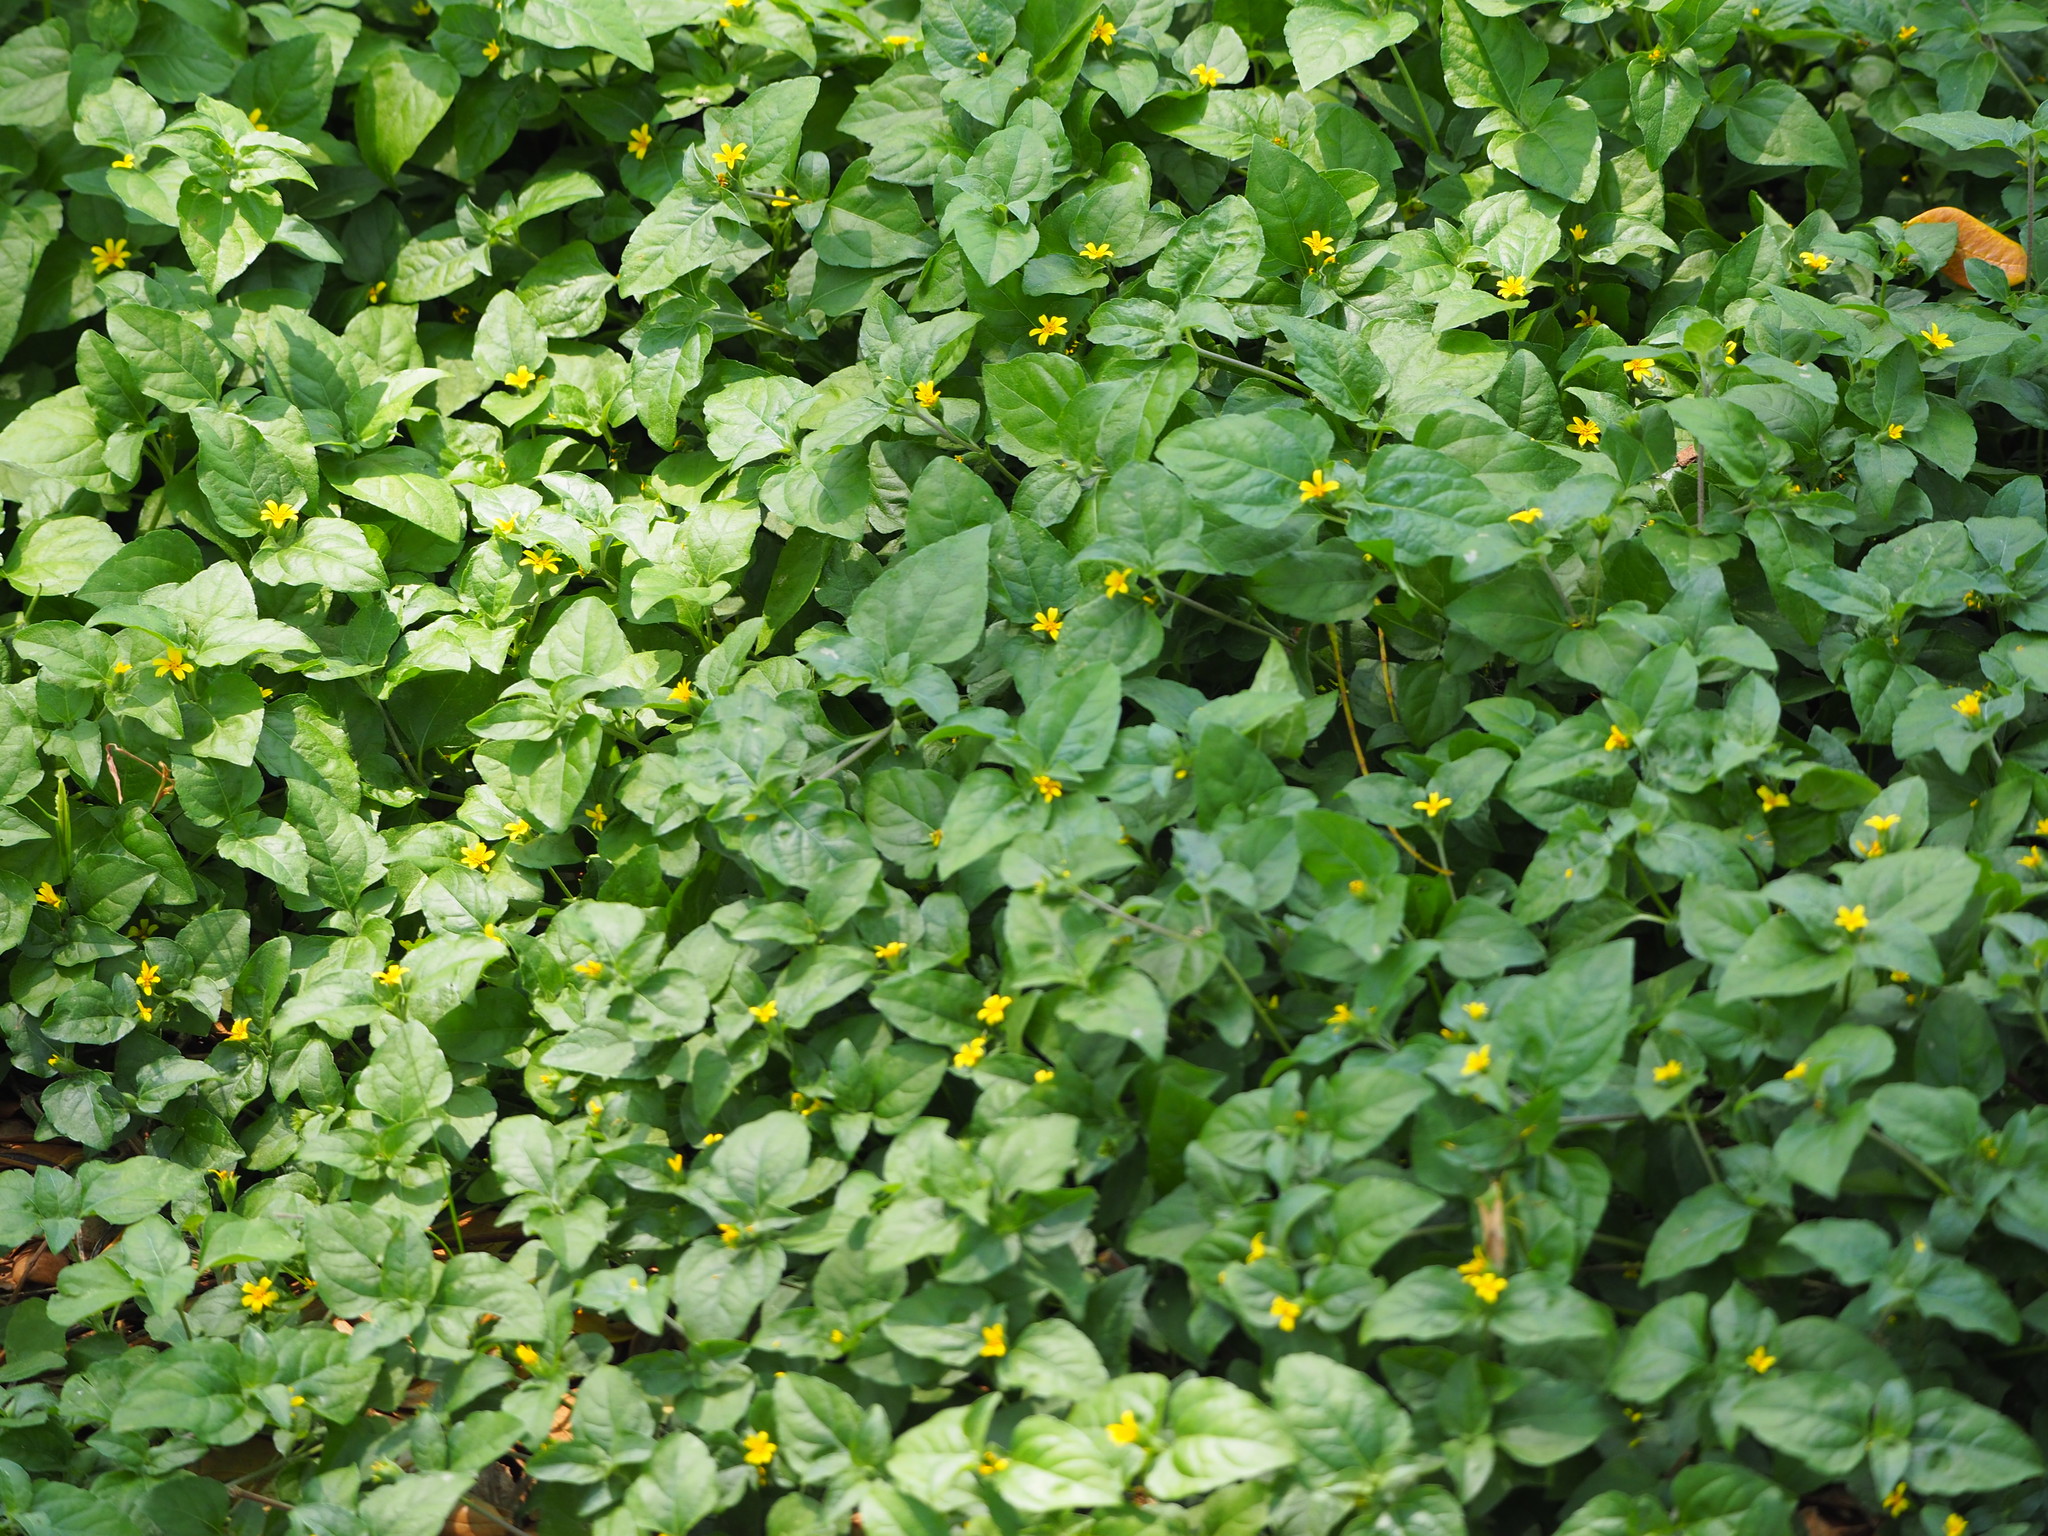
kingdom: Plantae
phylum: Tracheophyta
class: Magnoliopsida
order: Asterales
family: Asteraceae
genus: Calyptocarpus
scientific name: Calyptocarpus vialis
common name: Straggler daisy
